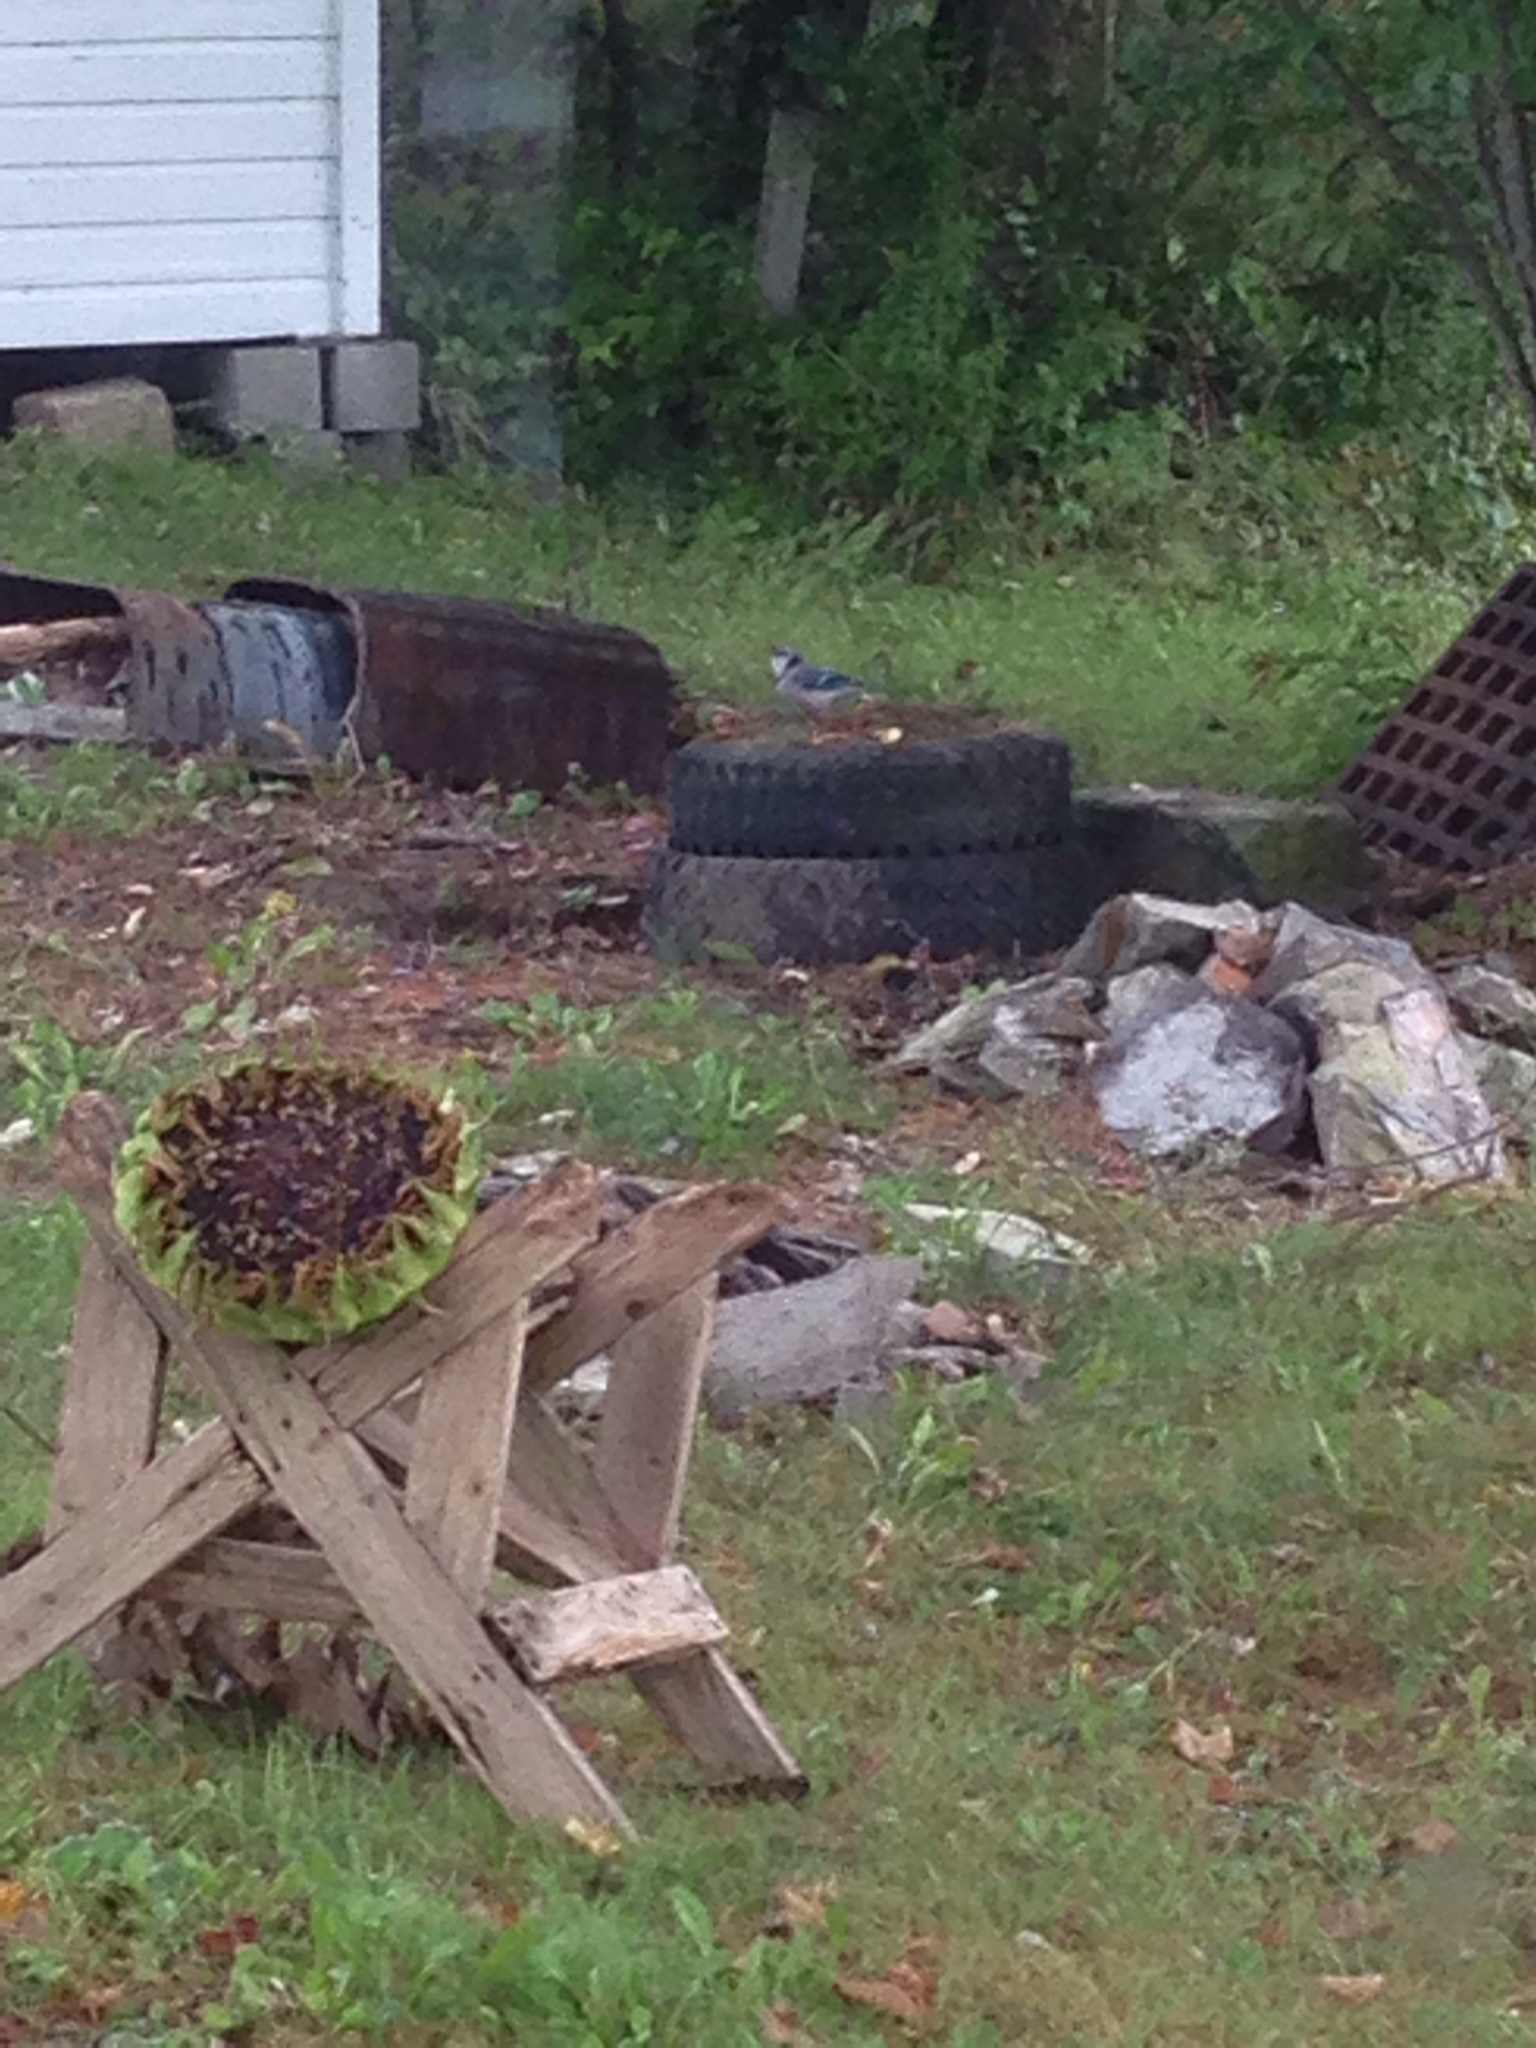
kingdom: Animalia
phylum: Chordata
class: Aves
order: Passeriformes
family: Corvidae
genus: Cyanocitta
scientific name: Cyanocitta cristata
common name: Blue jay
